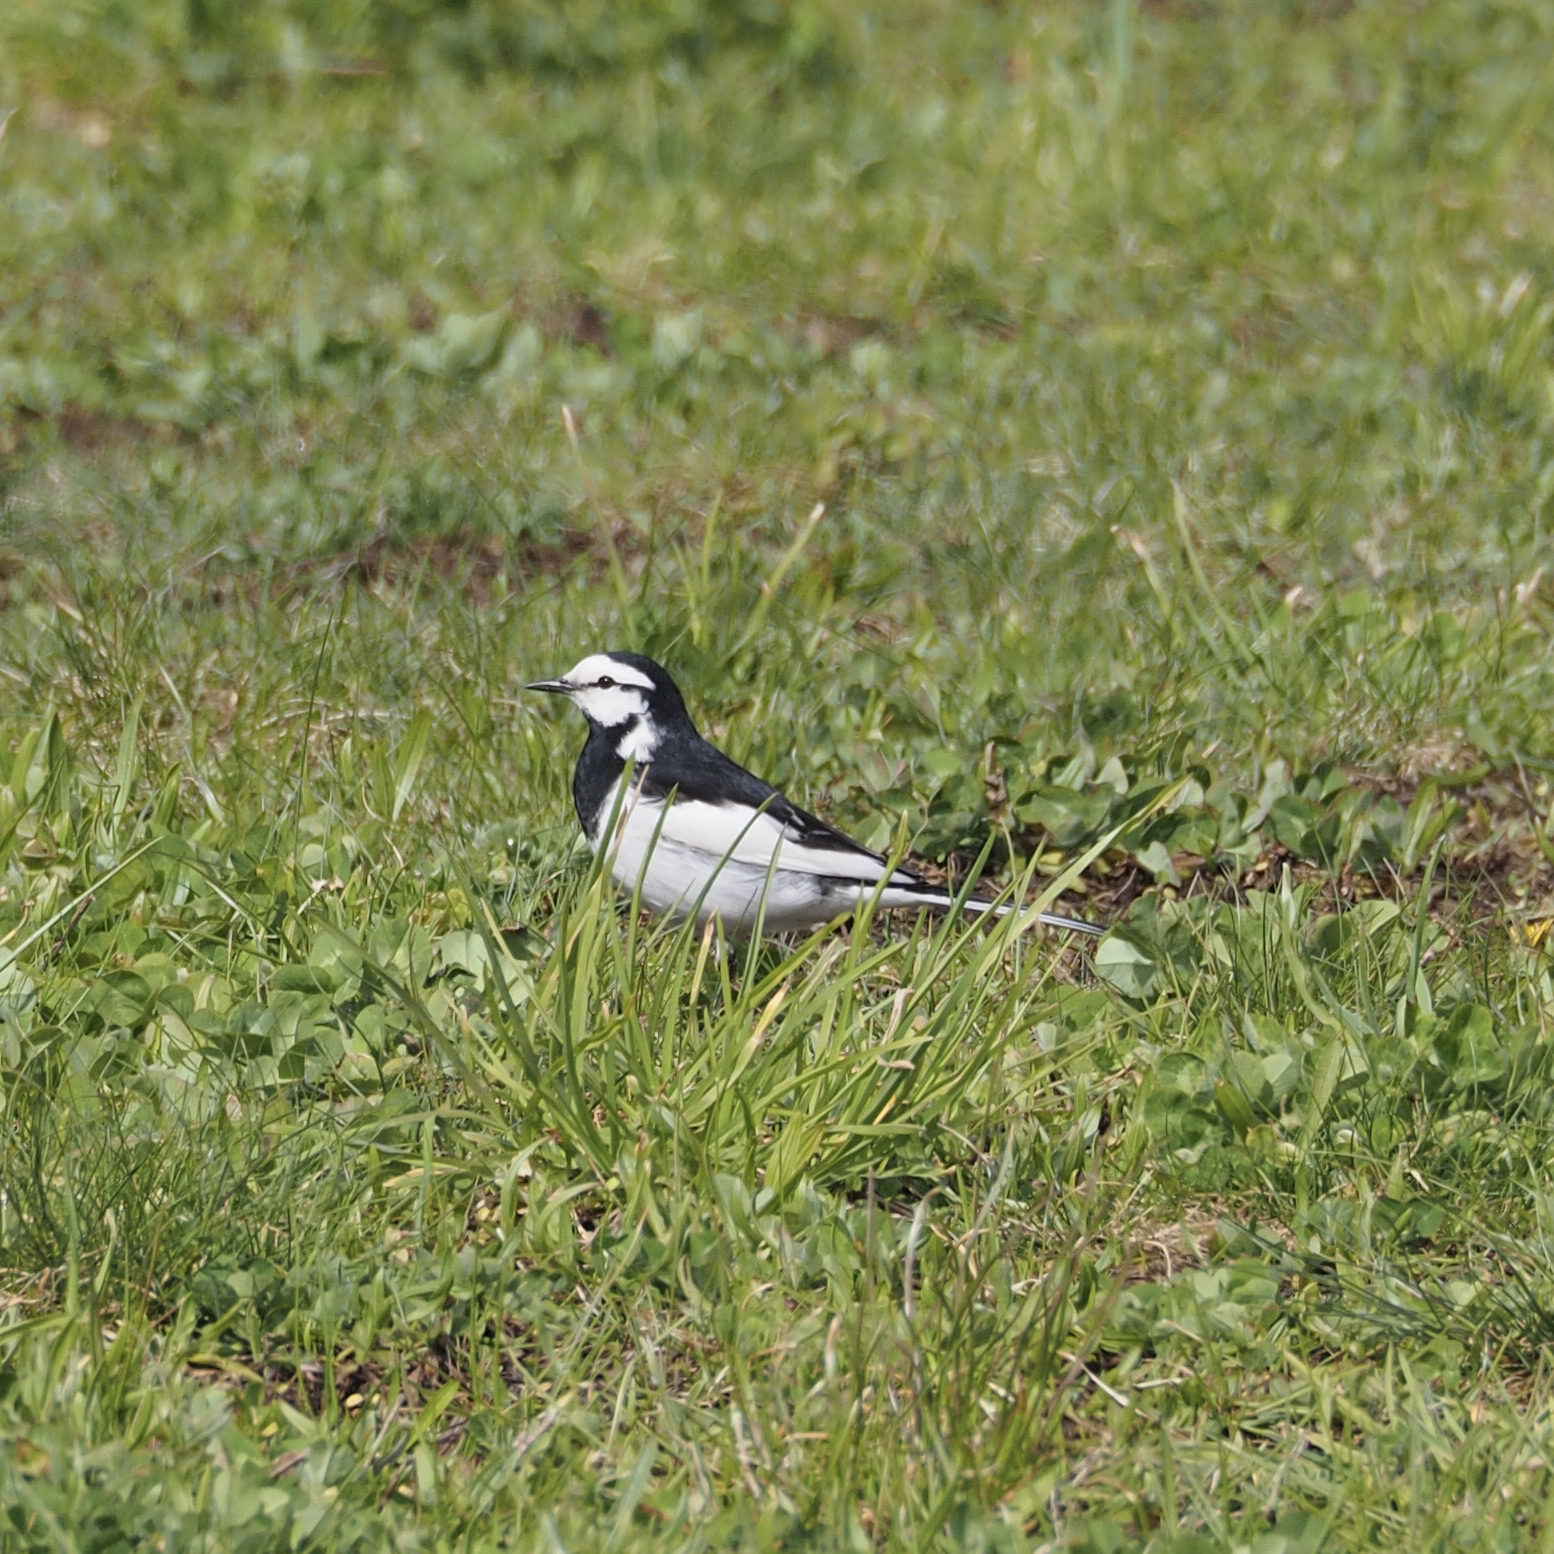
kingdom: Animalia
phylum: Chordata
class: Aves
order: Passeriformes
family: Motacillidae
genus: Motacilla
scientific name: Motacilla alba
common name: White wagtail
